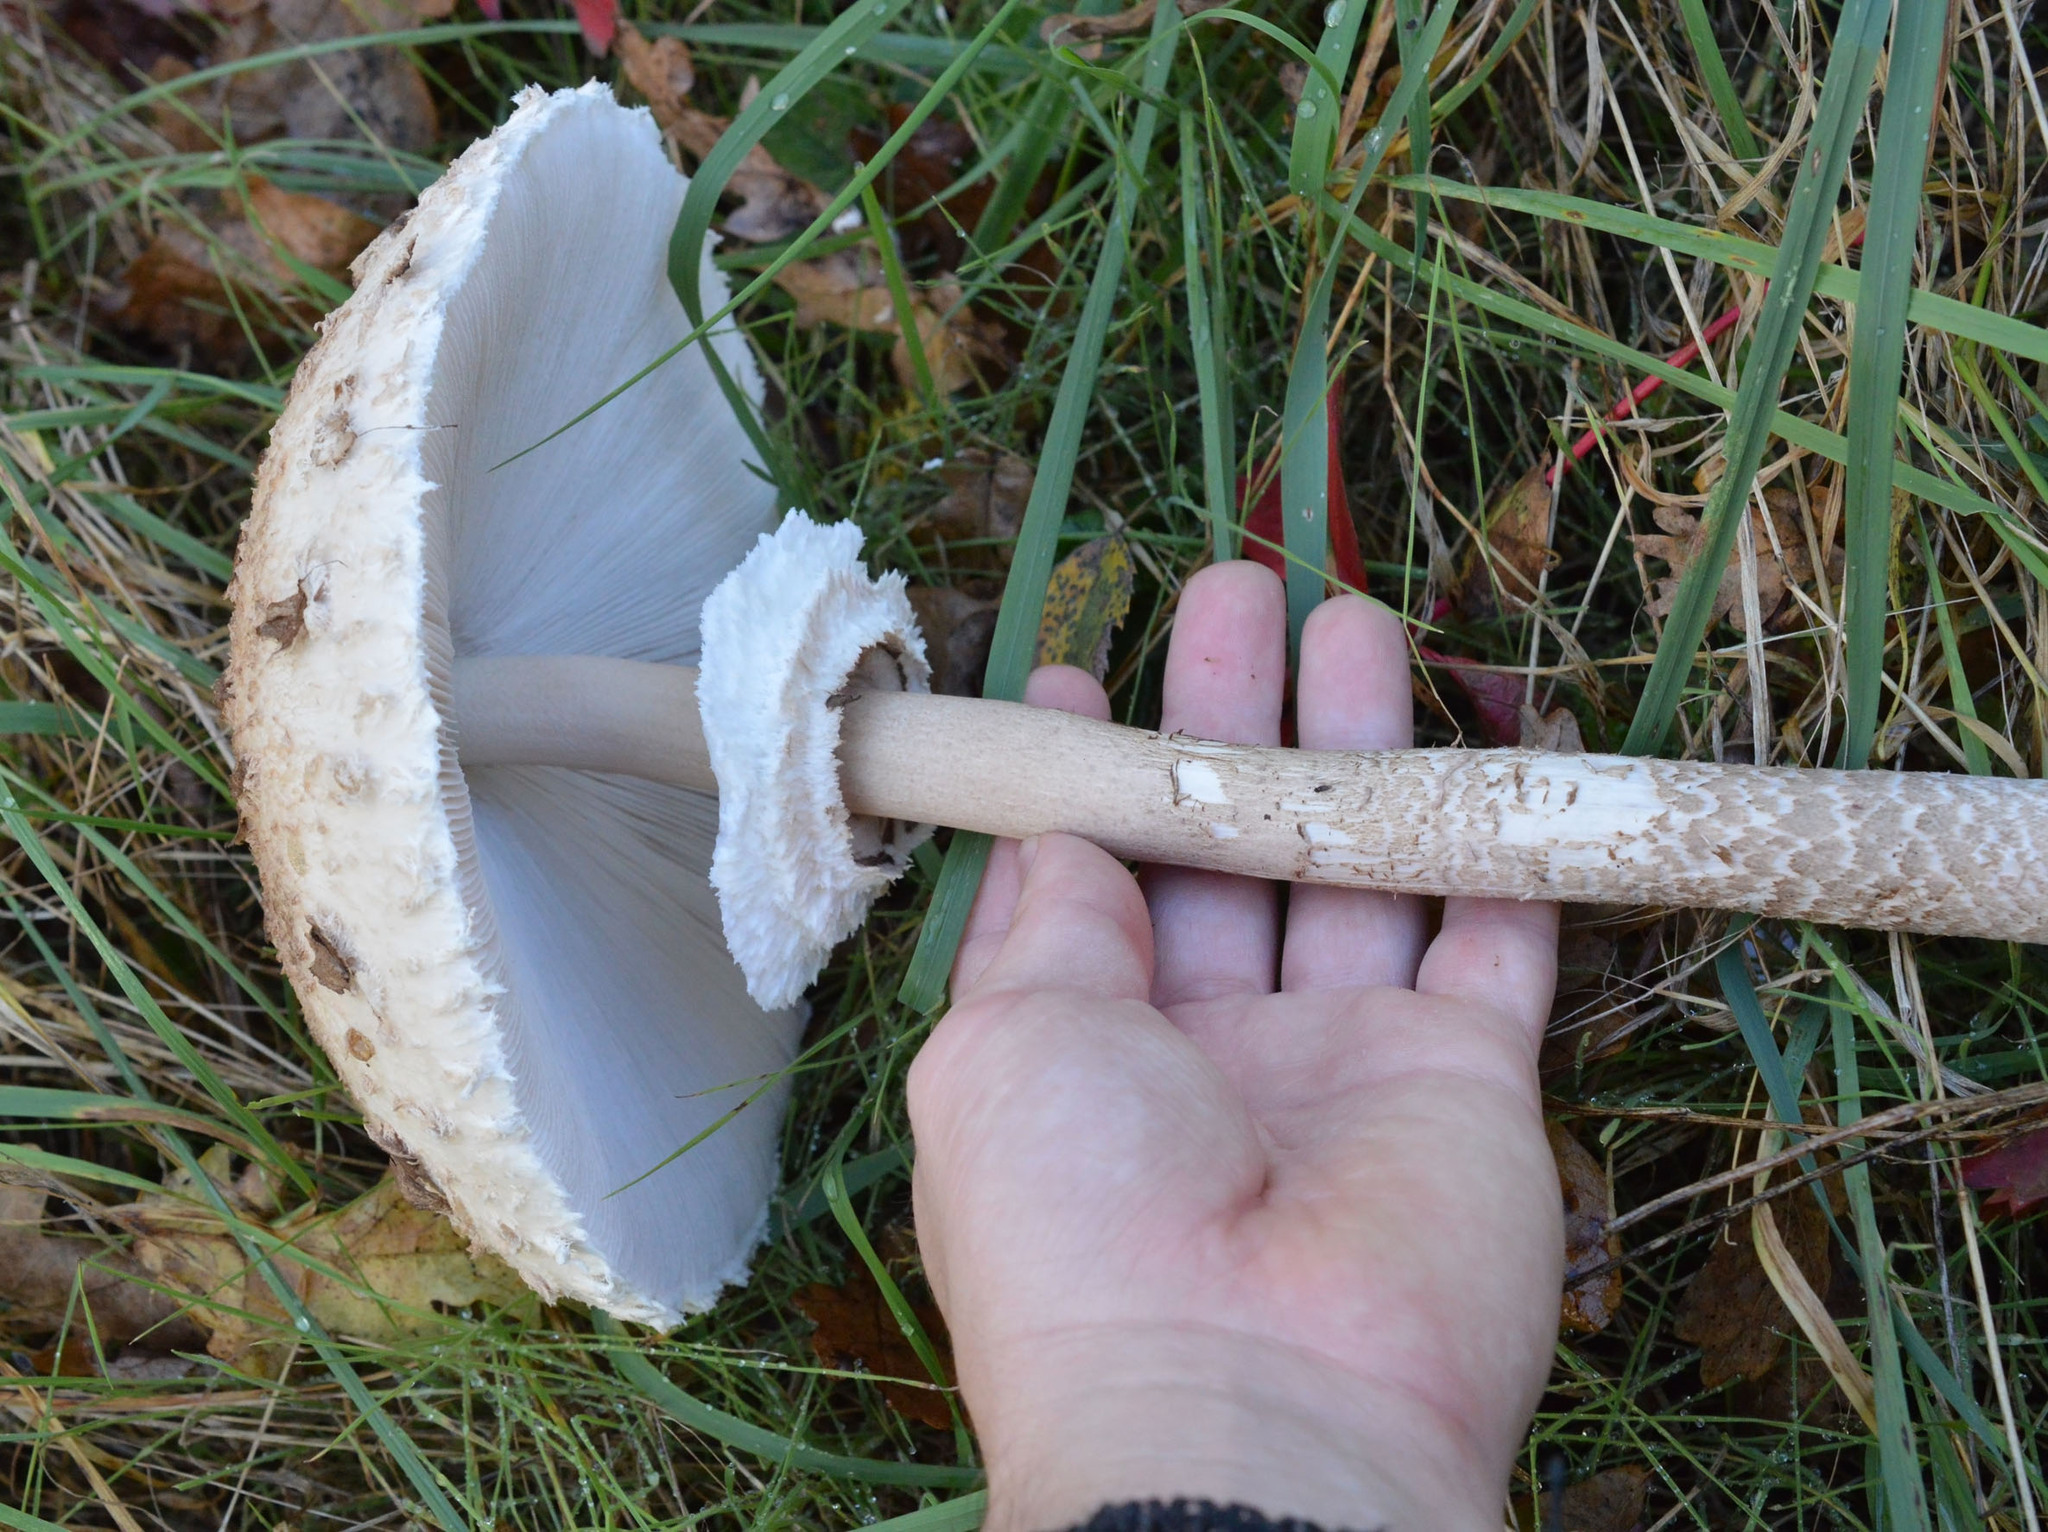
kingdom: Fungi
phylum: Basidiomycota
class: Agaricomycetes
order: Agaricales
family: Agaricaceae
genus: Macrolepiota
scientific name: Macrolepiota procera
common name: Parasol
